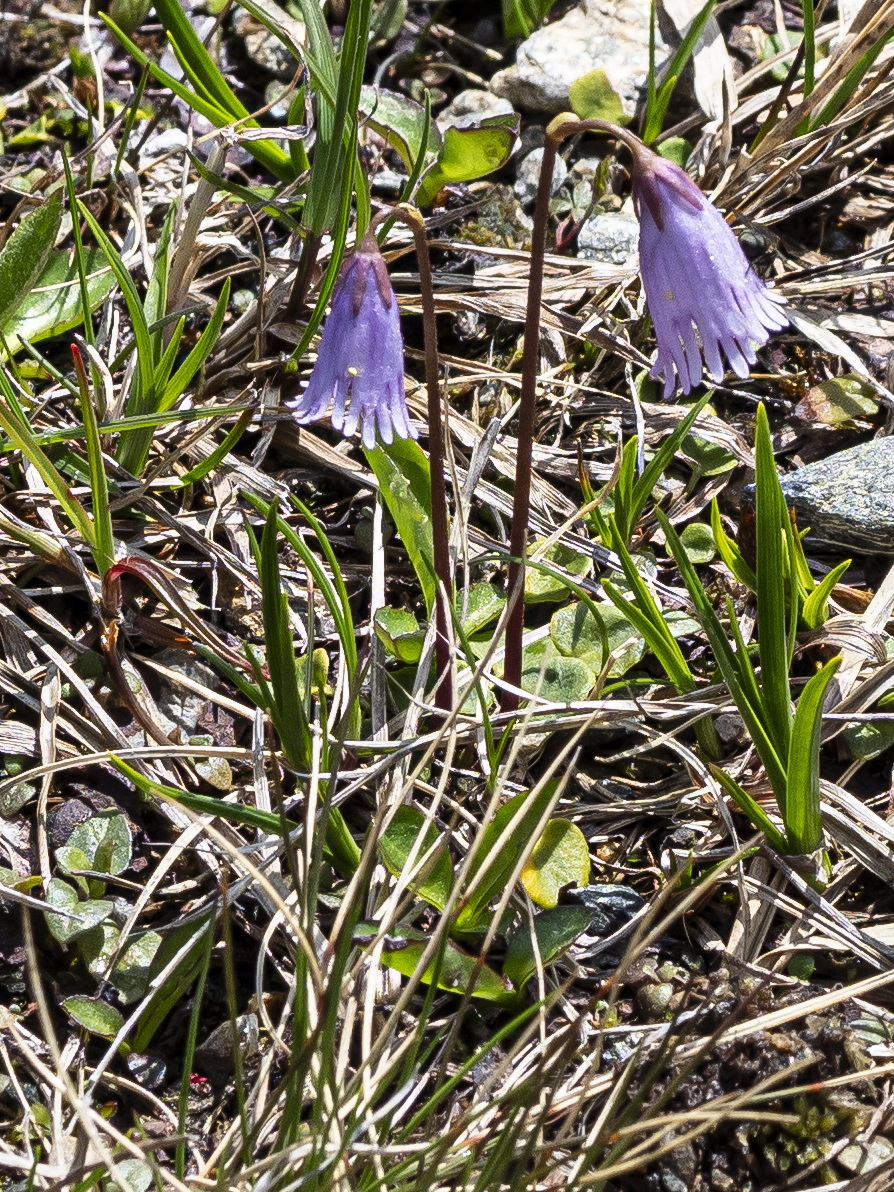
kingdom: Plantae
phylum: Tracheophyta
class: Magnoliopsida
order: Ericales
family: Primulaceae
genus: Soldanella
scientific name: Soldanella alpicola
